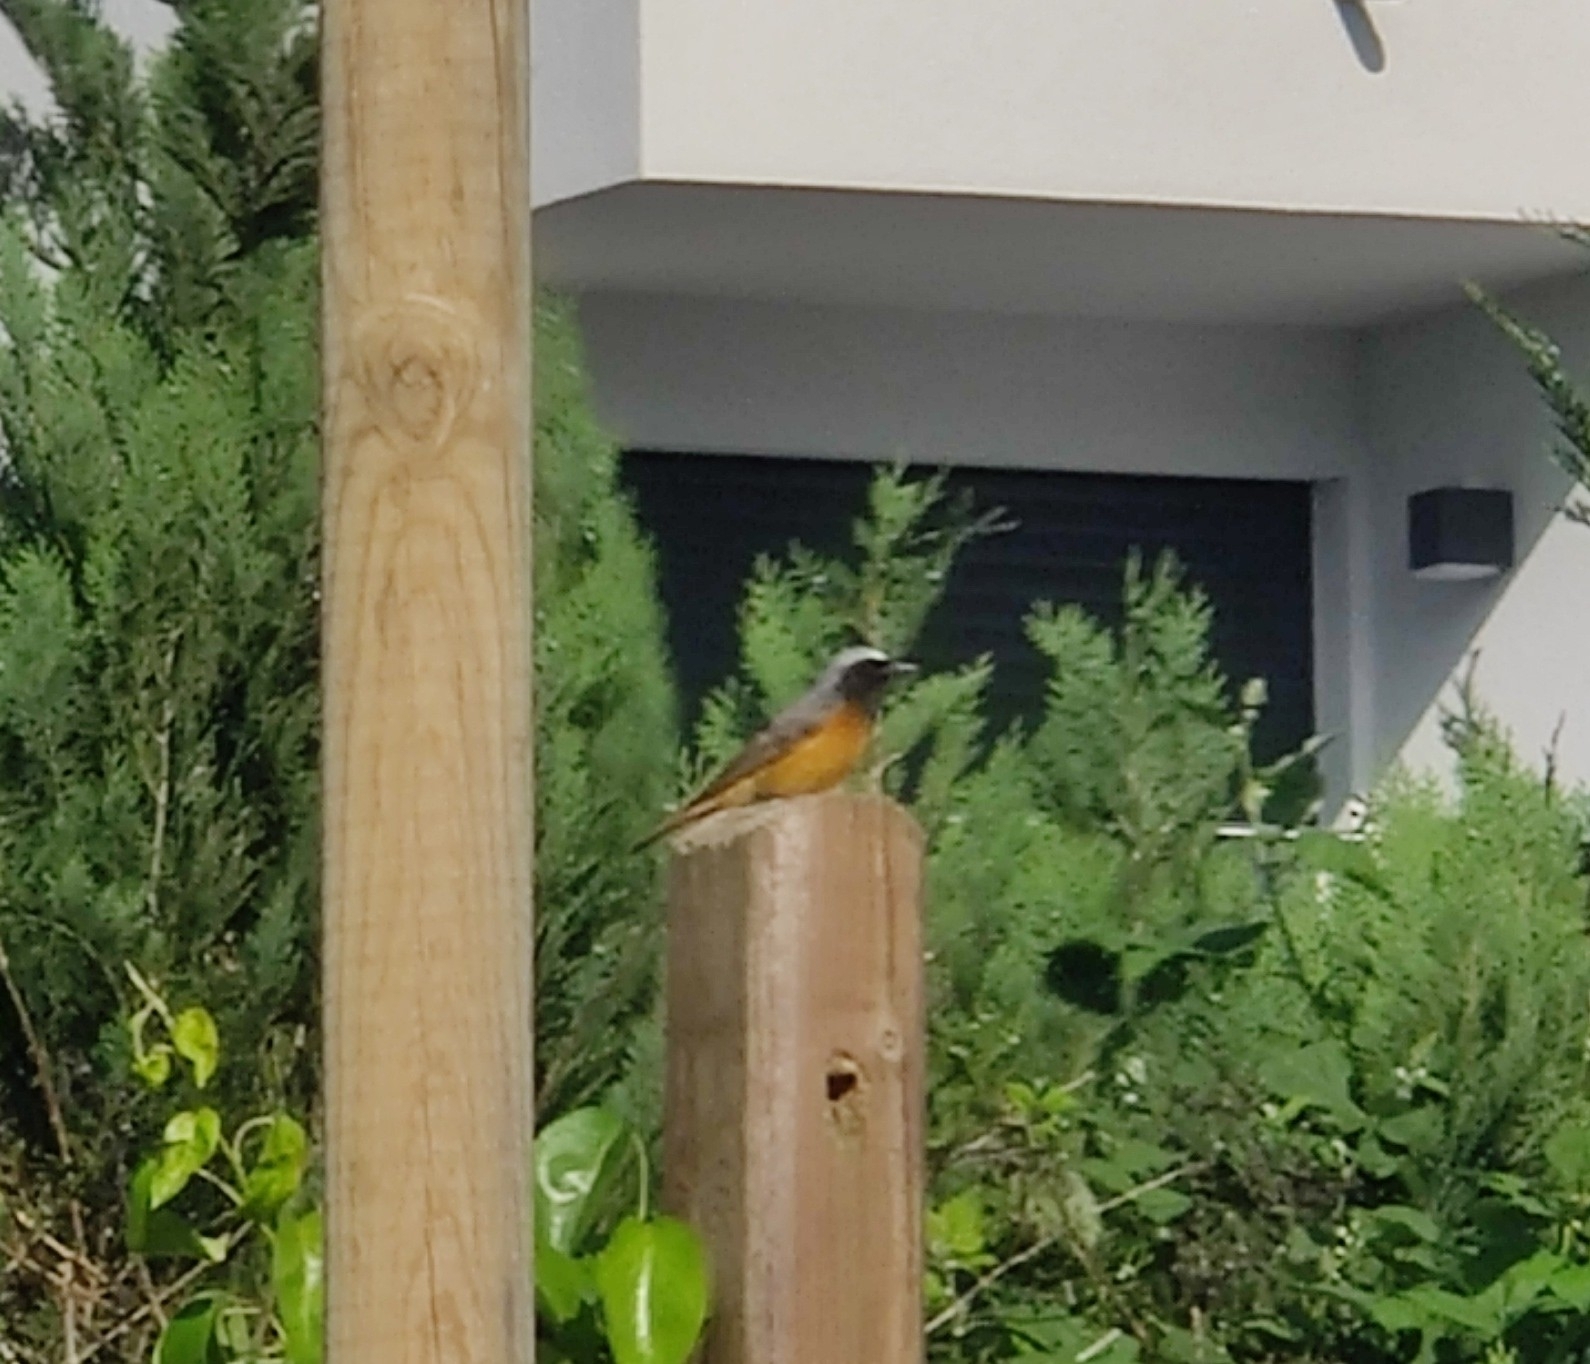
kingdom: Animalia
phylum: Chordata
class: Aves
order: Passeriformes
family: Muscicapidae
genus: Phoenicurus
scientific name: Phoenicurus phoenicurus
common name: Common redstart
